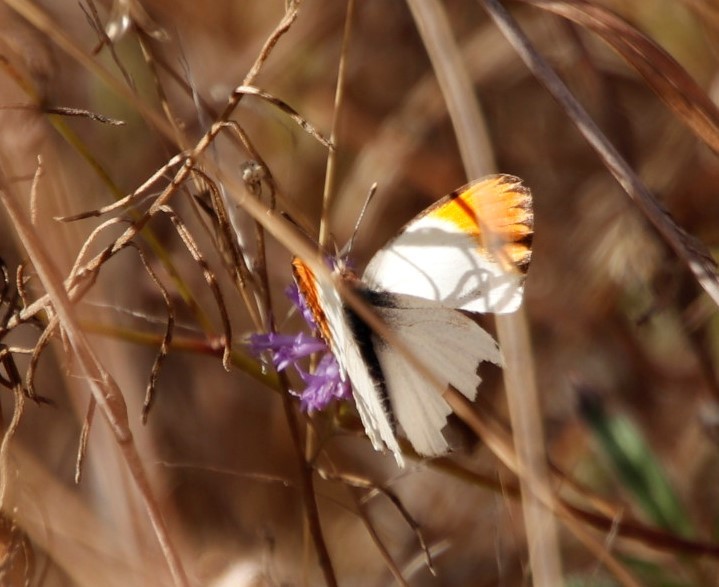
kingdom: Animalia
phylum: Arthropoda
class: Insecta
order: Lepidoptera
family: Pieridae
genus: Colotis
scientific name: Colotis evagore
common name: Desert orange-tip
